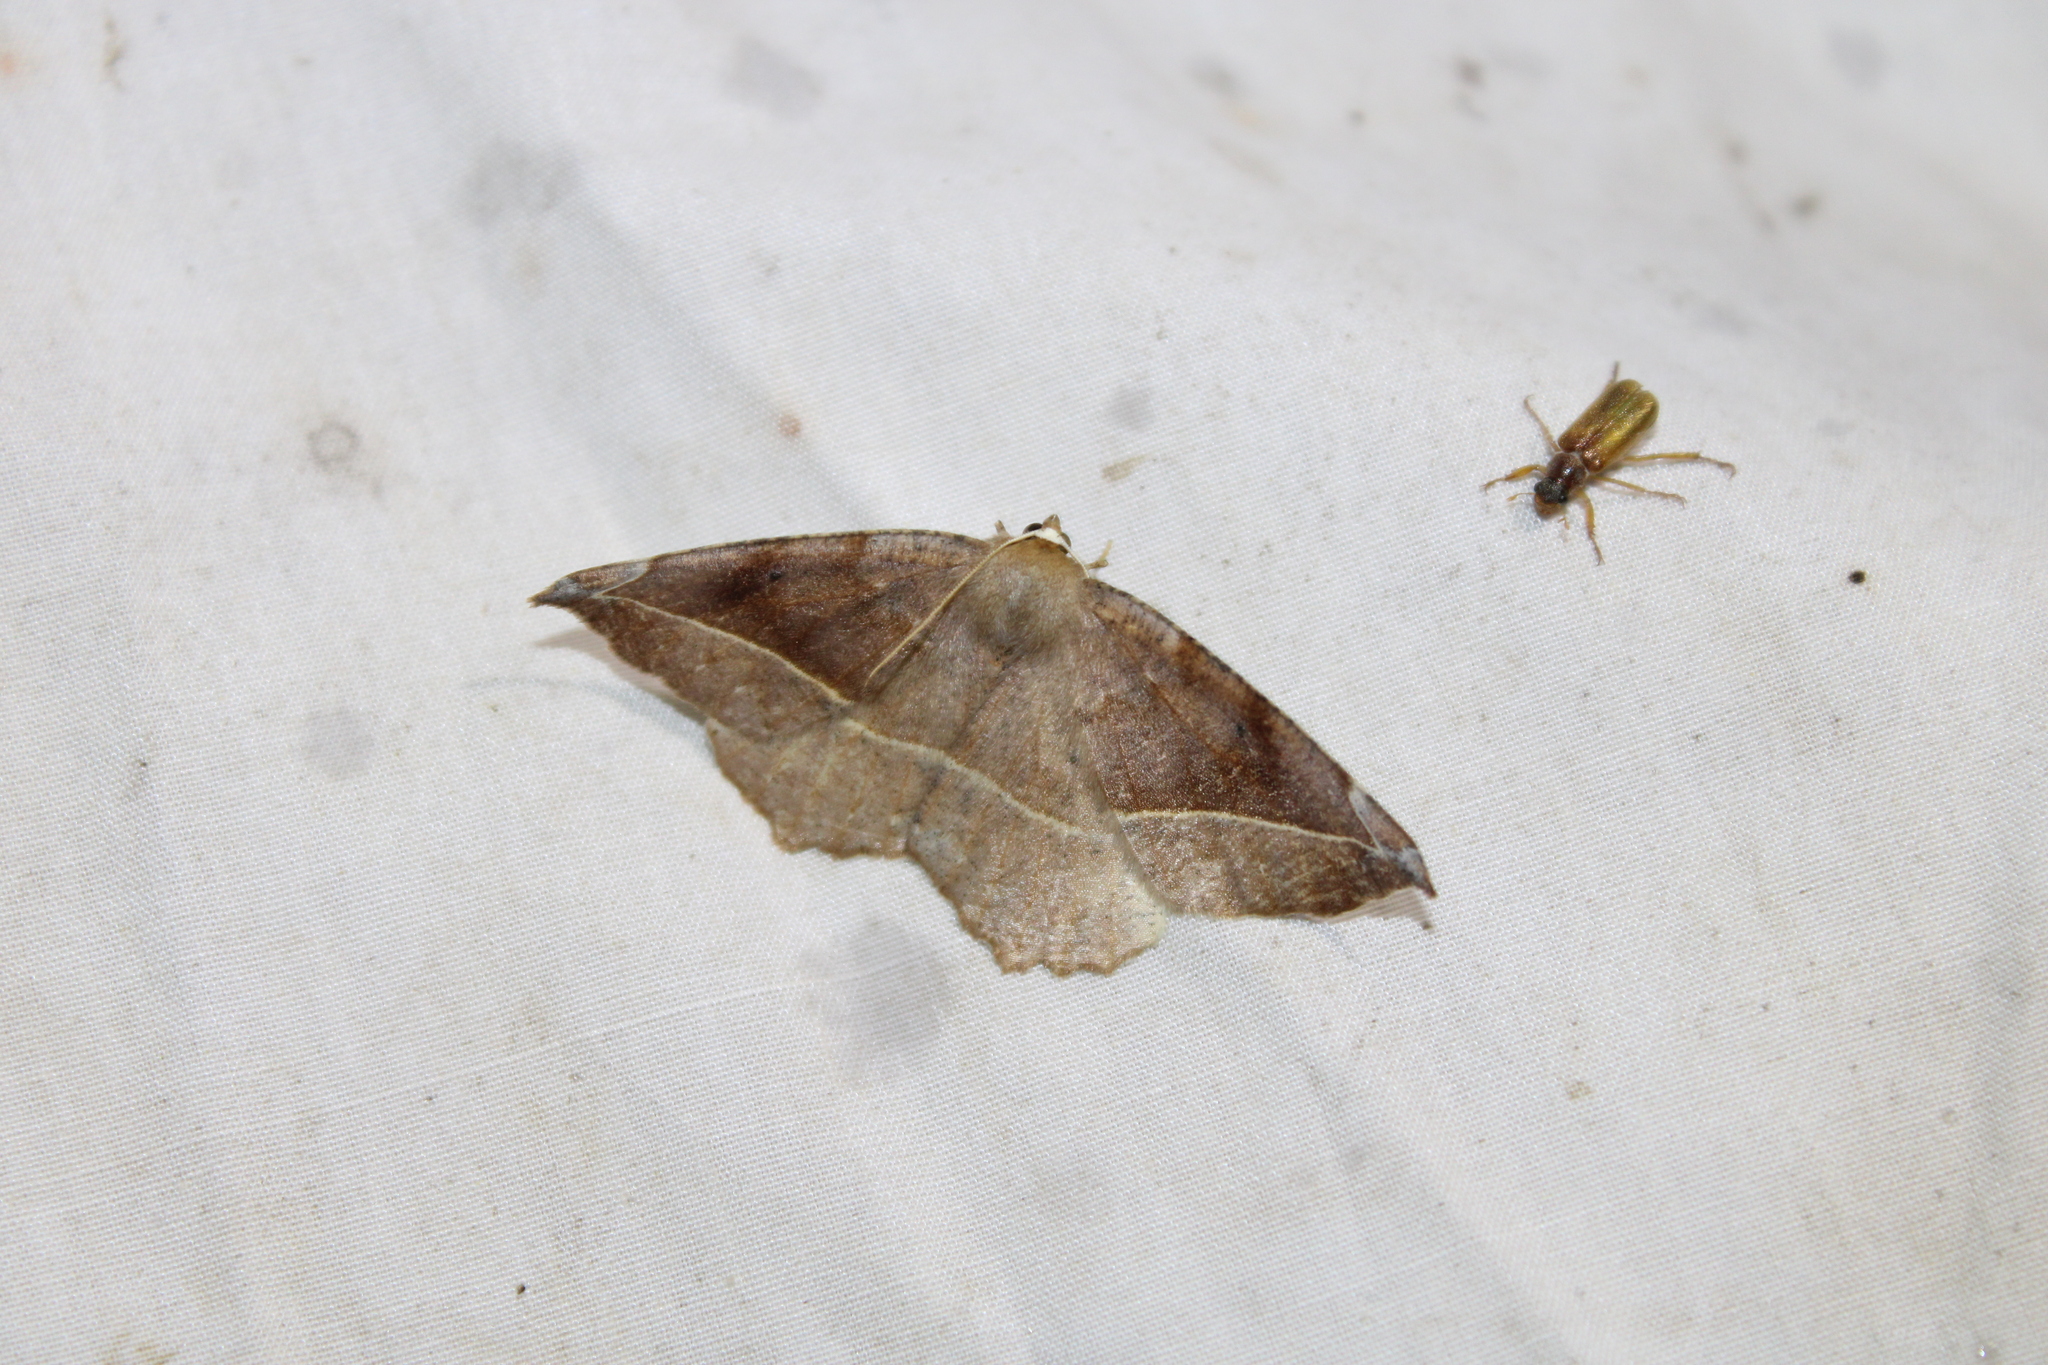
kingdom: Animalia
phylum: Arthropoda
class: Insecta
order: Lepidoptera
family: Geometridae
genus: Eutrapela
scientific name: Eutrapela clemataria
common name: Curved-toothed geometer
